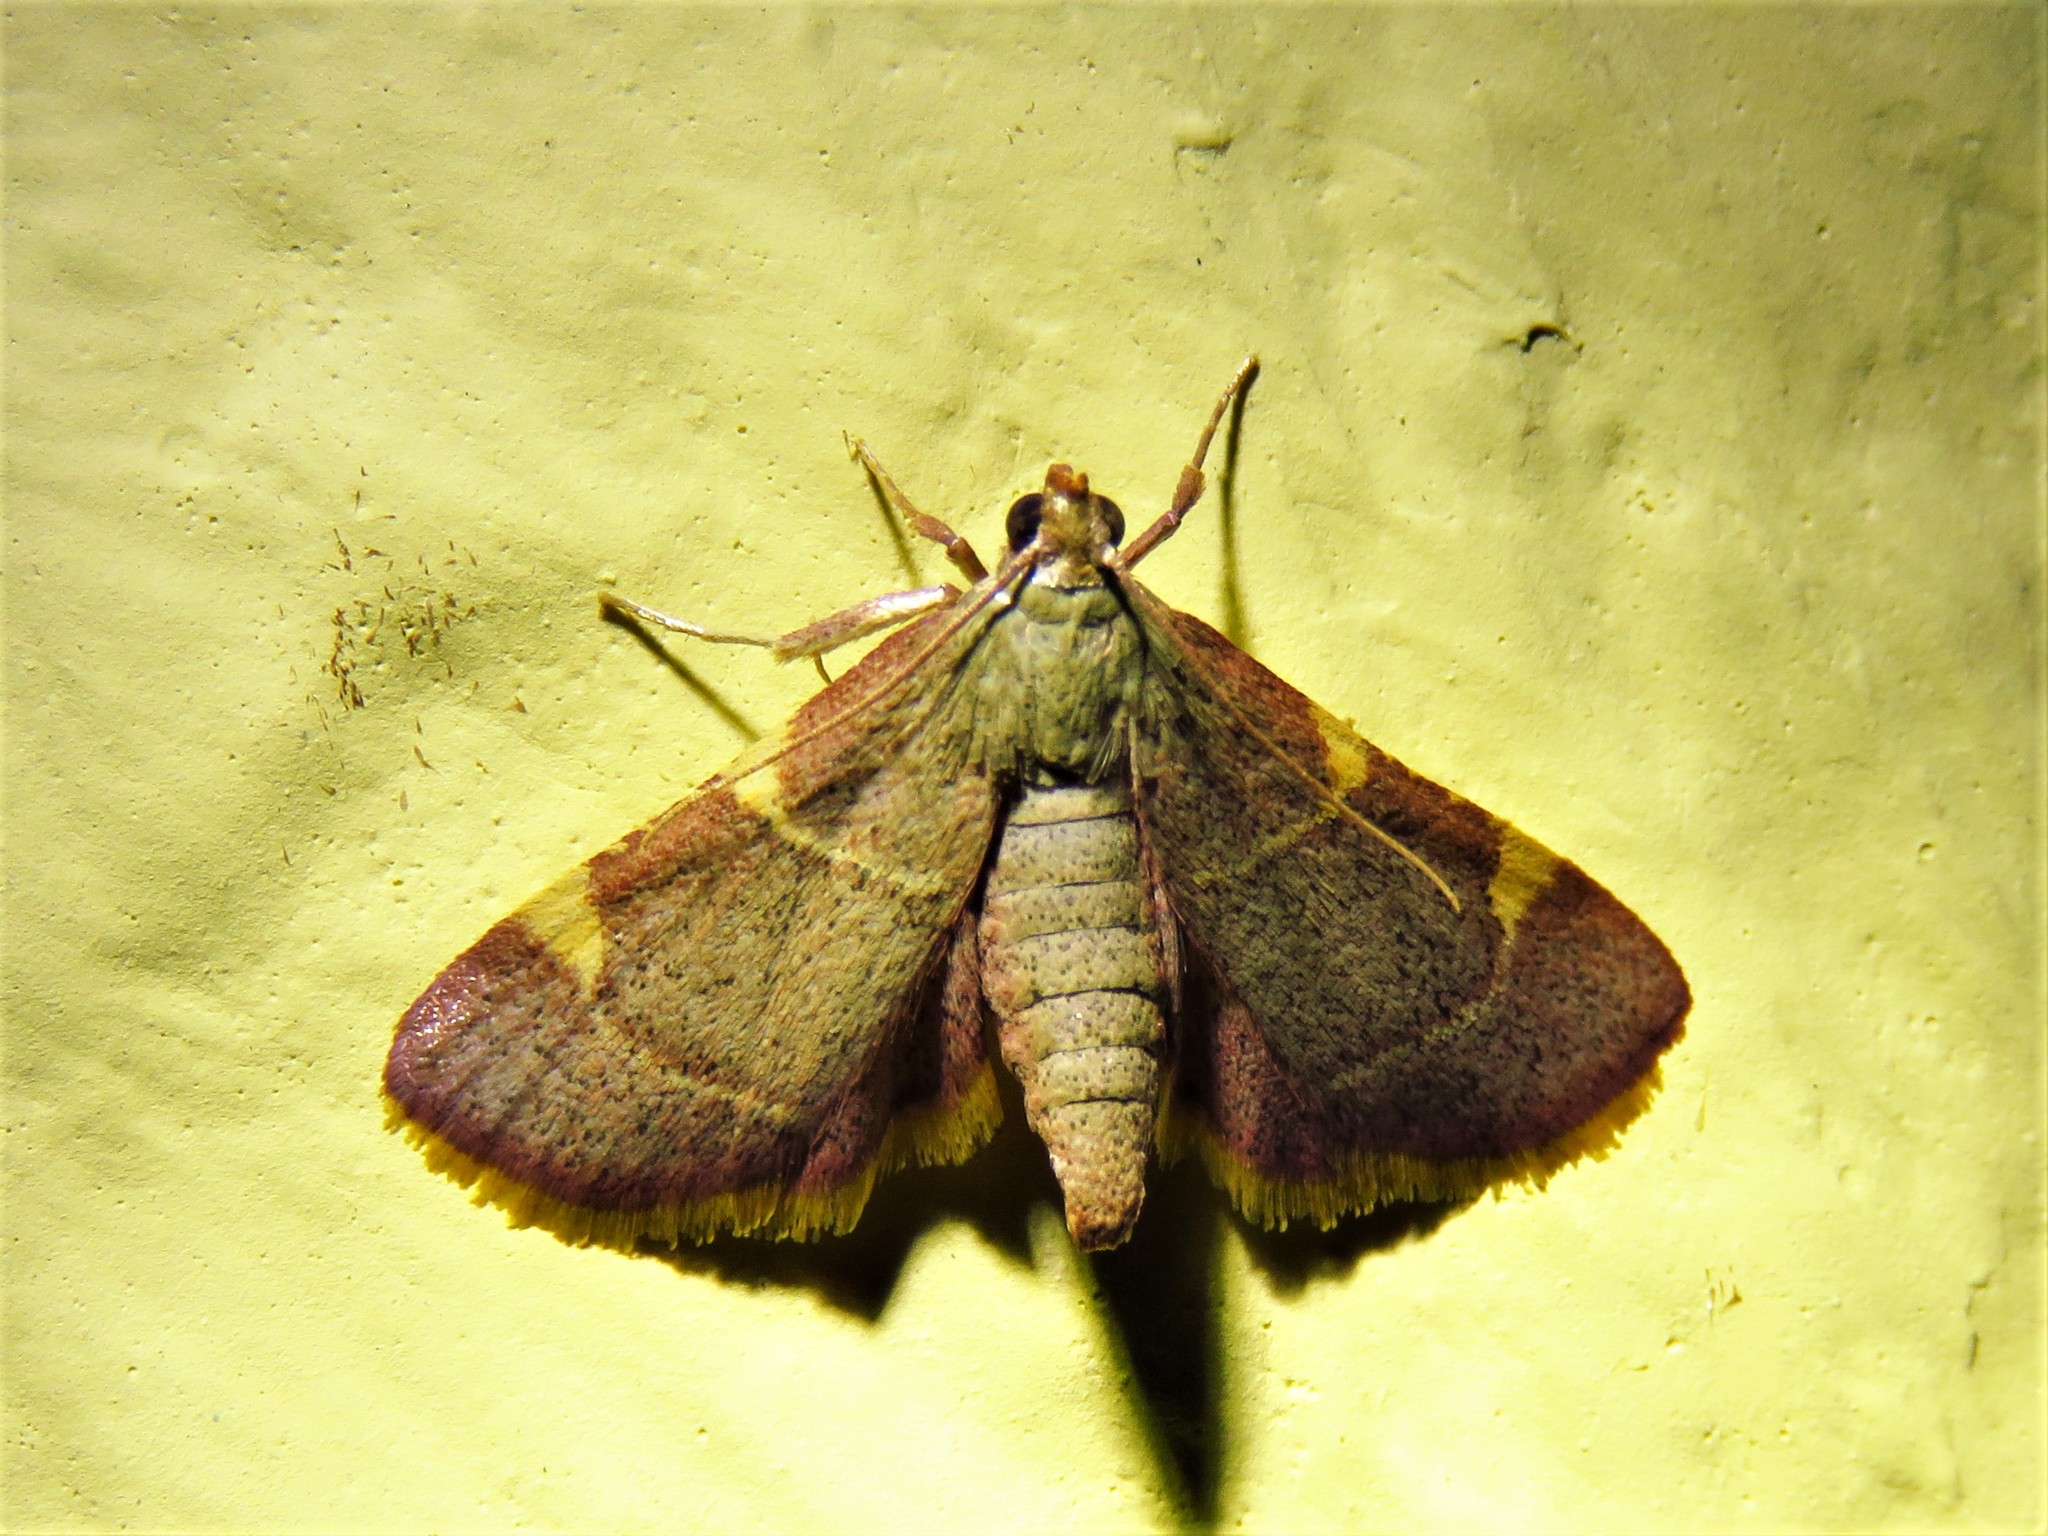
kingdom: Animalia
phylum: Arthropoda
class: Insecta
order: Lepidoptera
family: Pyralidae
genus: Hypsopygia
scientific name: Hypsopygia olinalis
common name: Yellow-fringed dolichomia moth
